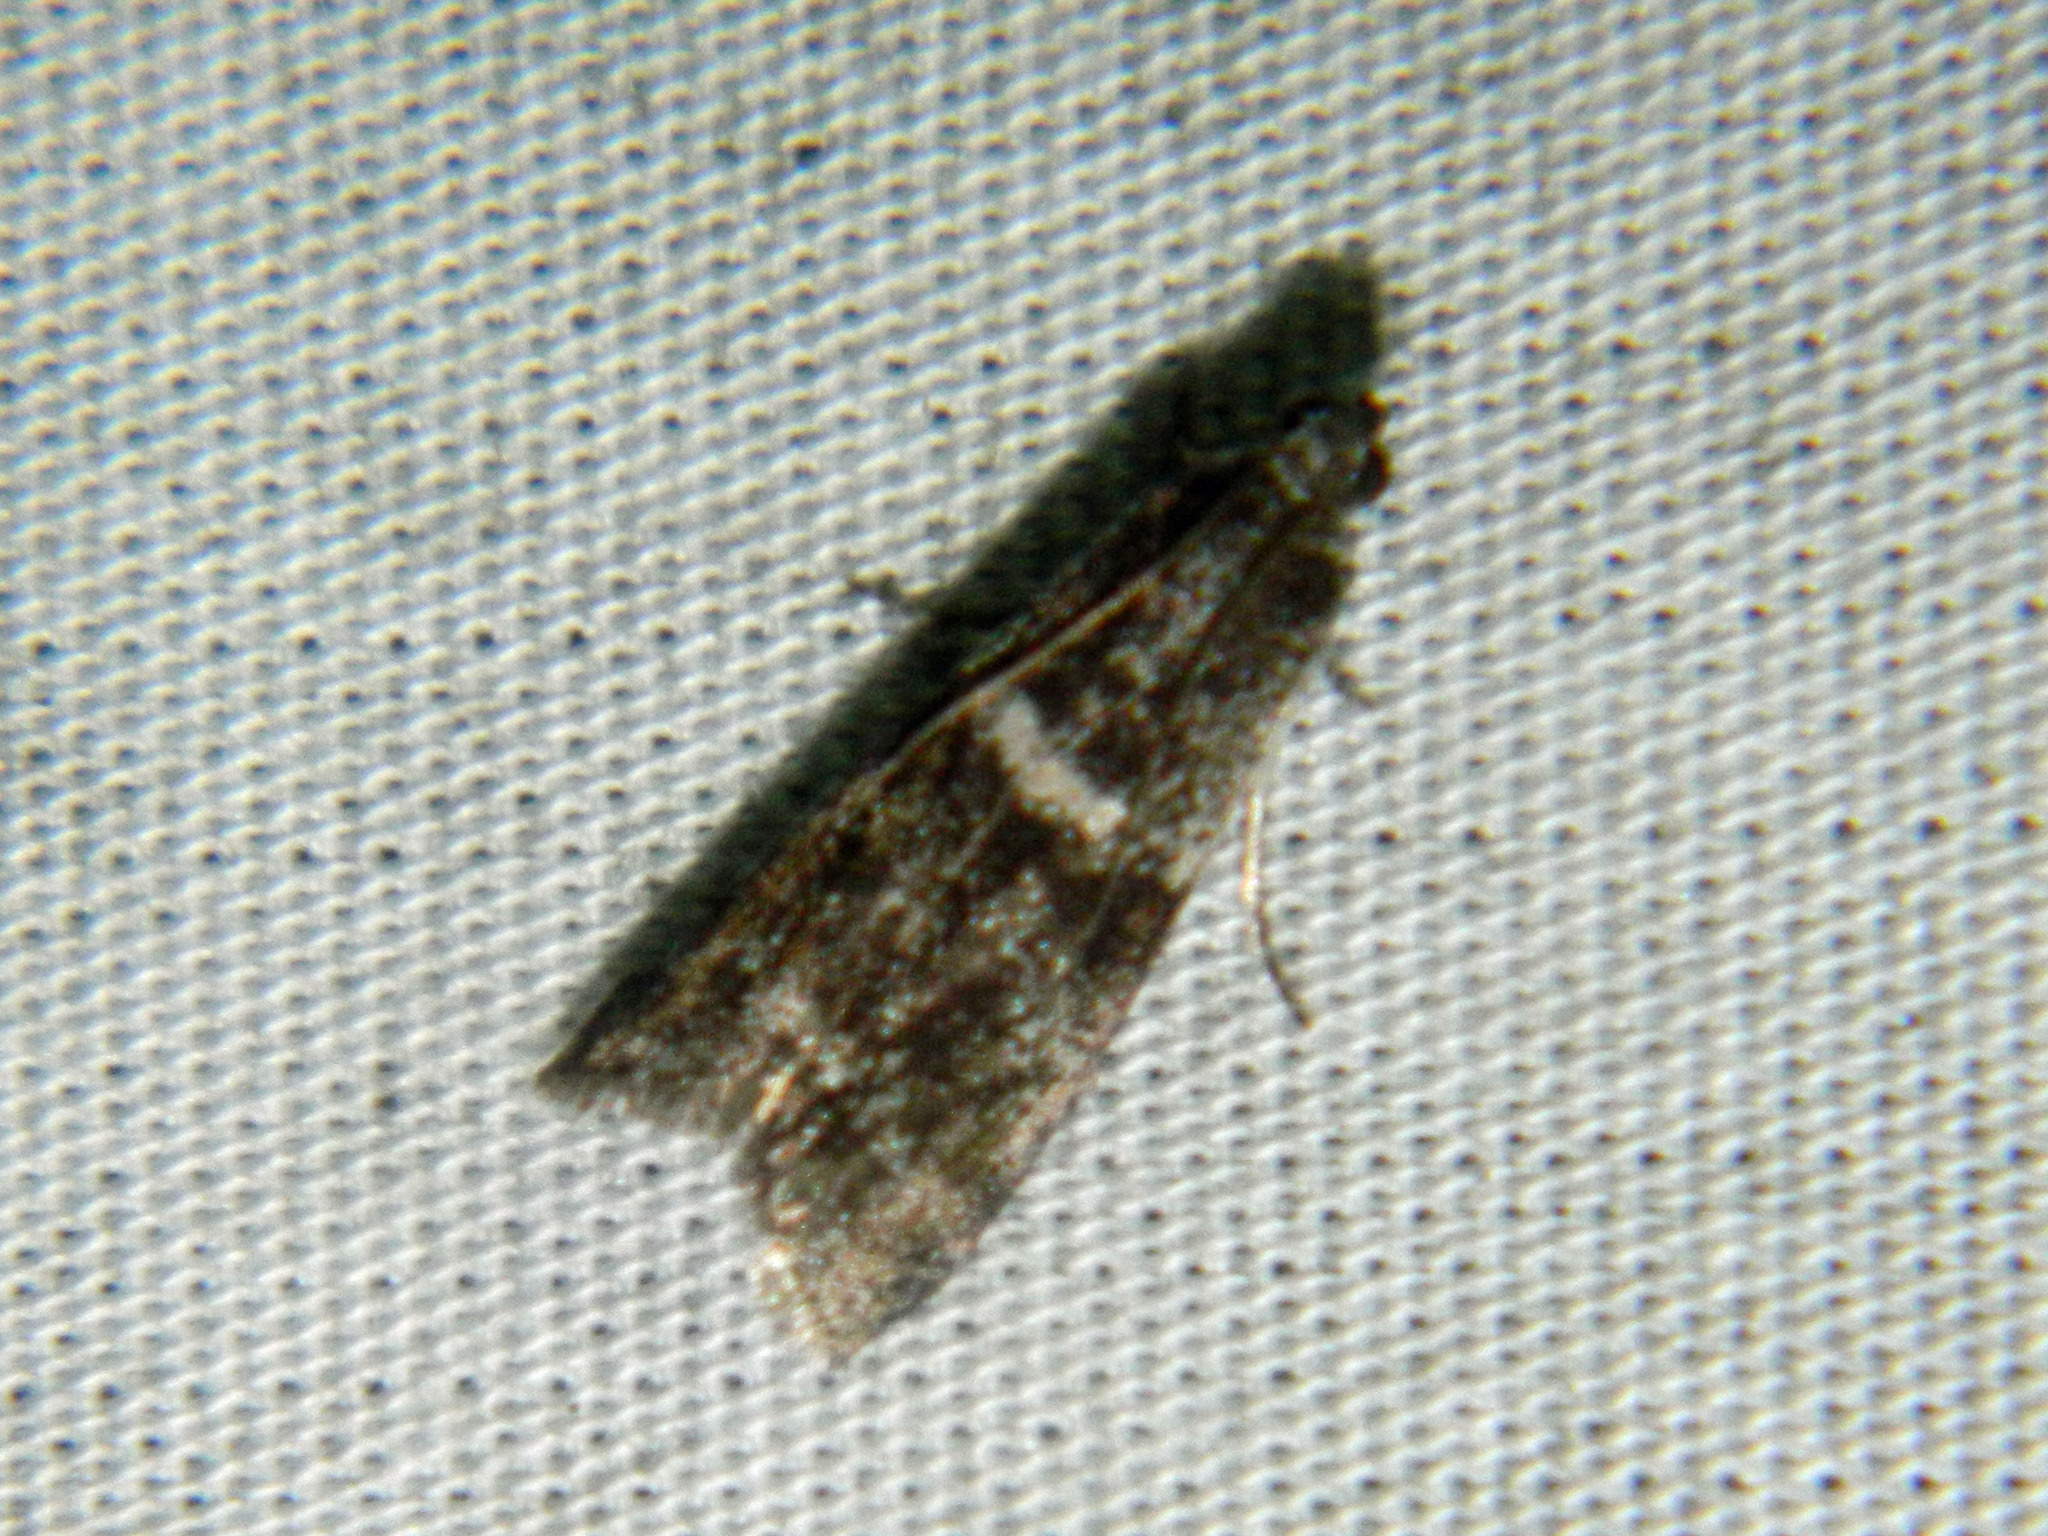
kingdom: Animalia
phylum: Arthropoda
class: Insecta
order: Lepidoptera
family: Pyralidae
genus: Apomyelois
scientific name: Apomyelois bistriatella
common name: Heath knot-horn
